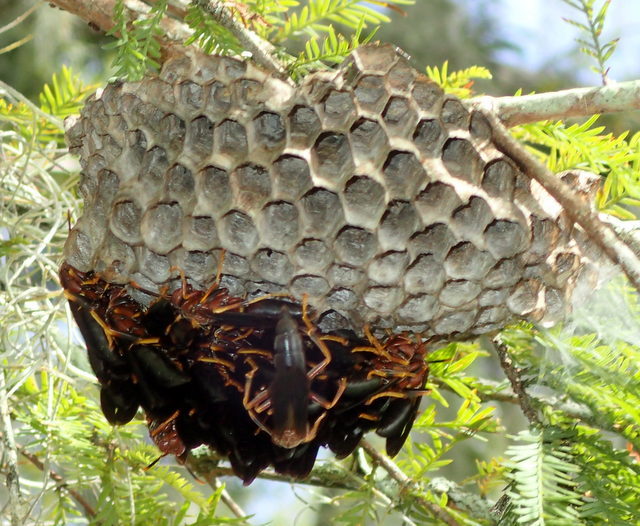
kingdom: Animalia
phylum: Arthropoda
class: Insecta
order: Hymenoptera
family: Eumenidae
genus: Polistes
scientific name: Polistes annularis
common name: Ringed paper wasp
